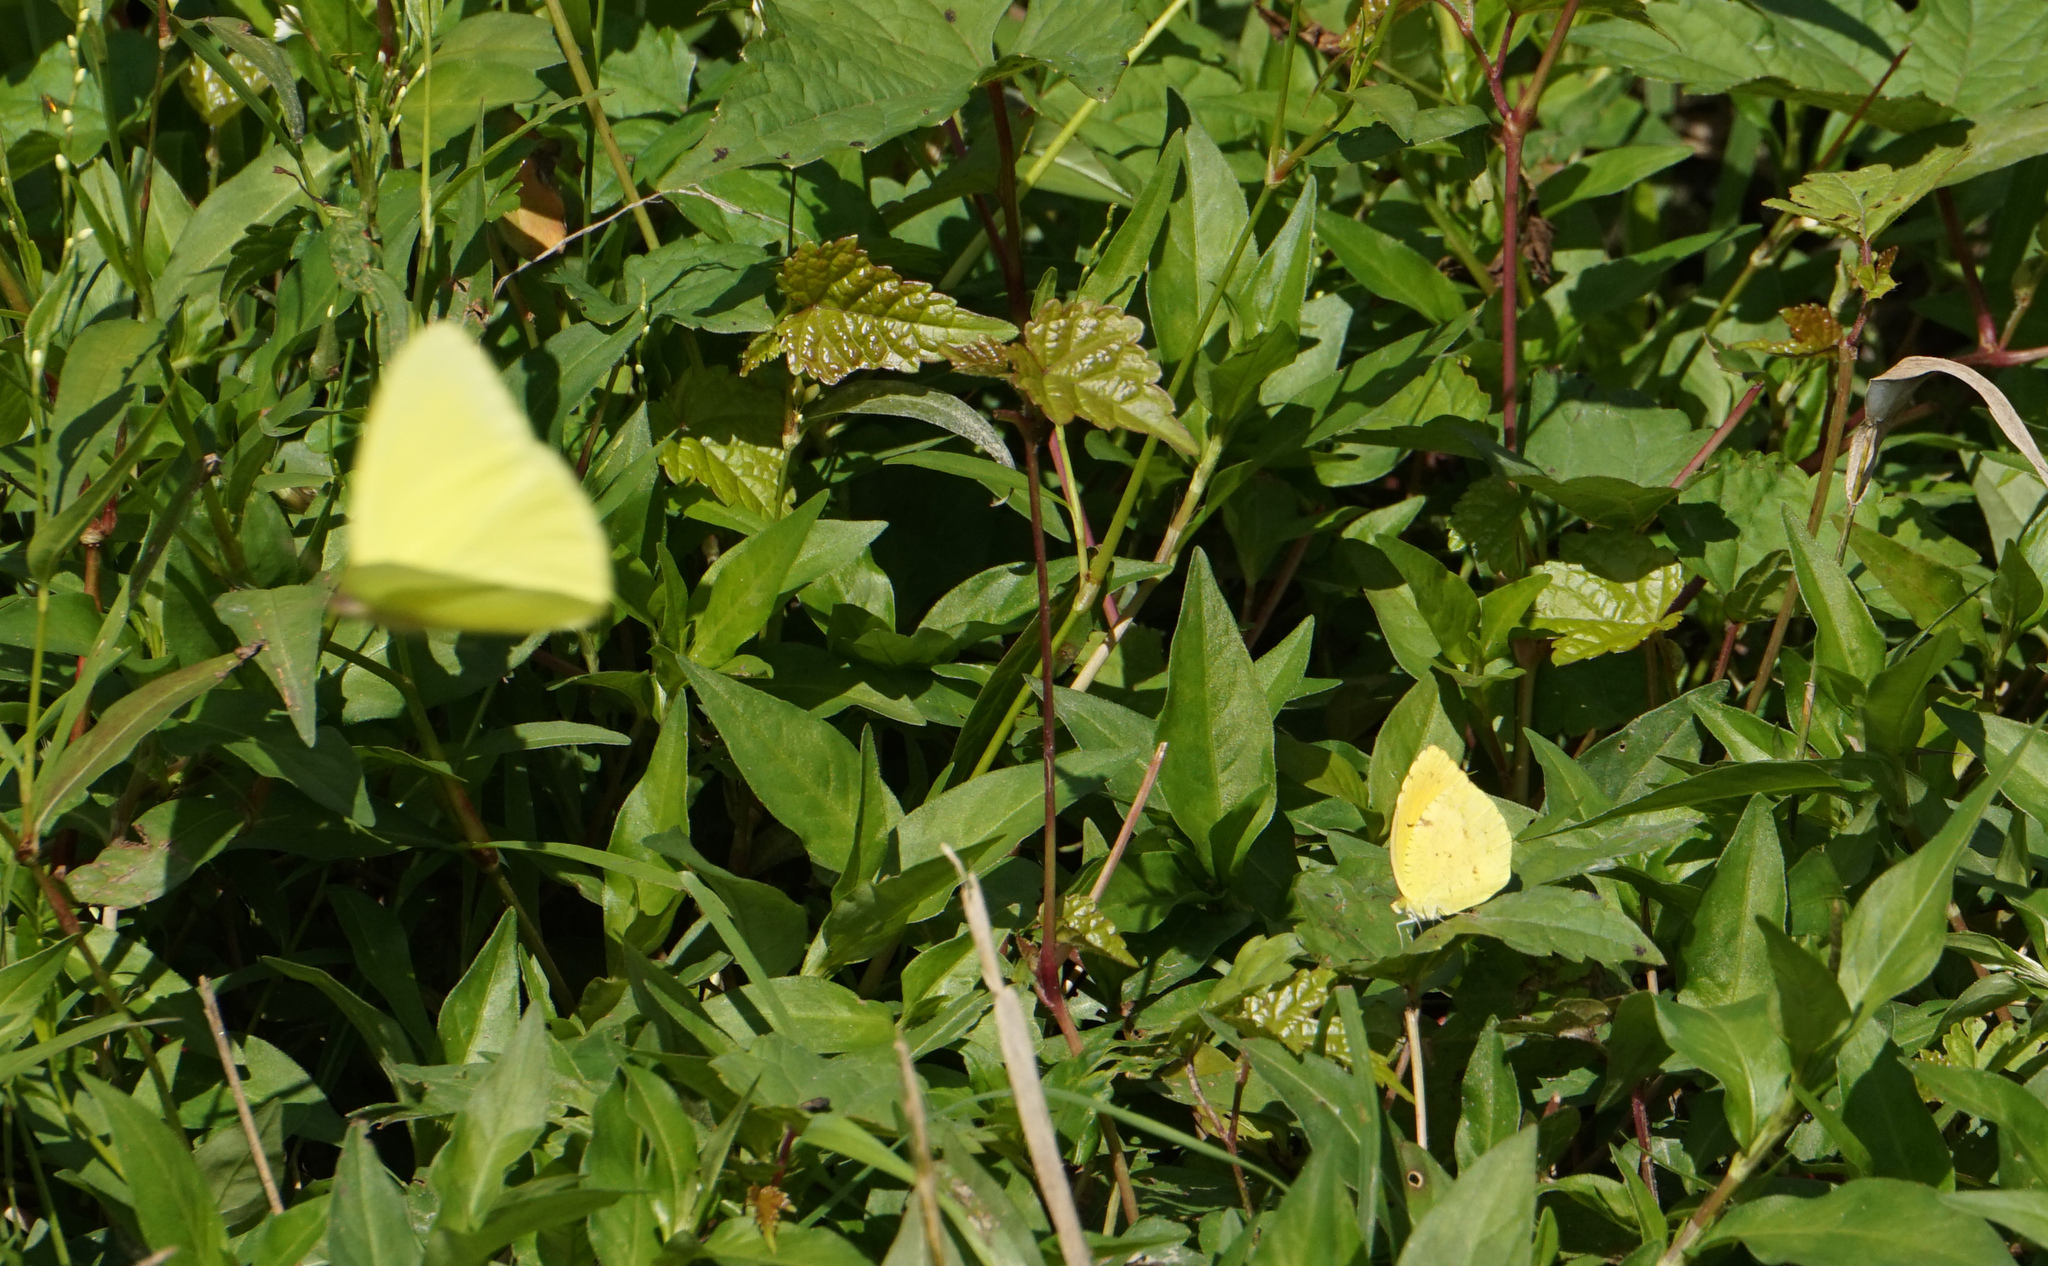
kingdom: Animalia
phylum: Arthropoda
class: Insecta
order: Lepidoptera
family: Pieridae
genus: Phoebis
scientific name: Phoebis sennae
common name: Cloudless sulphur
